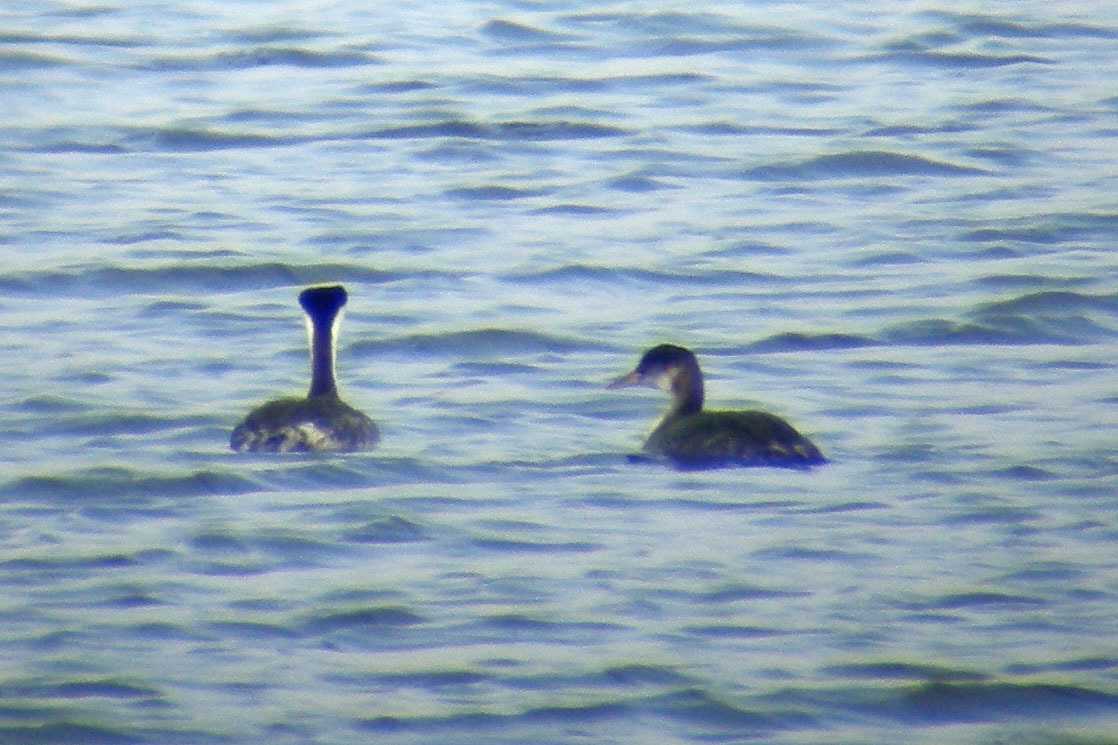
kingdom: Animalia
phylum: Chordata
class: Aves
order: Podicipediformes
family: Podicipedidae
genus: Aechmophorus
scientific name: Aechmophorus occidentalis
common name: Western grebe
